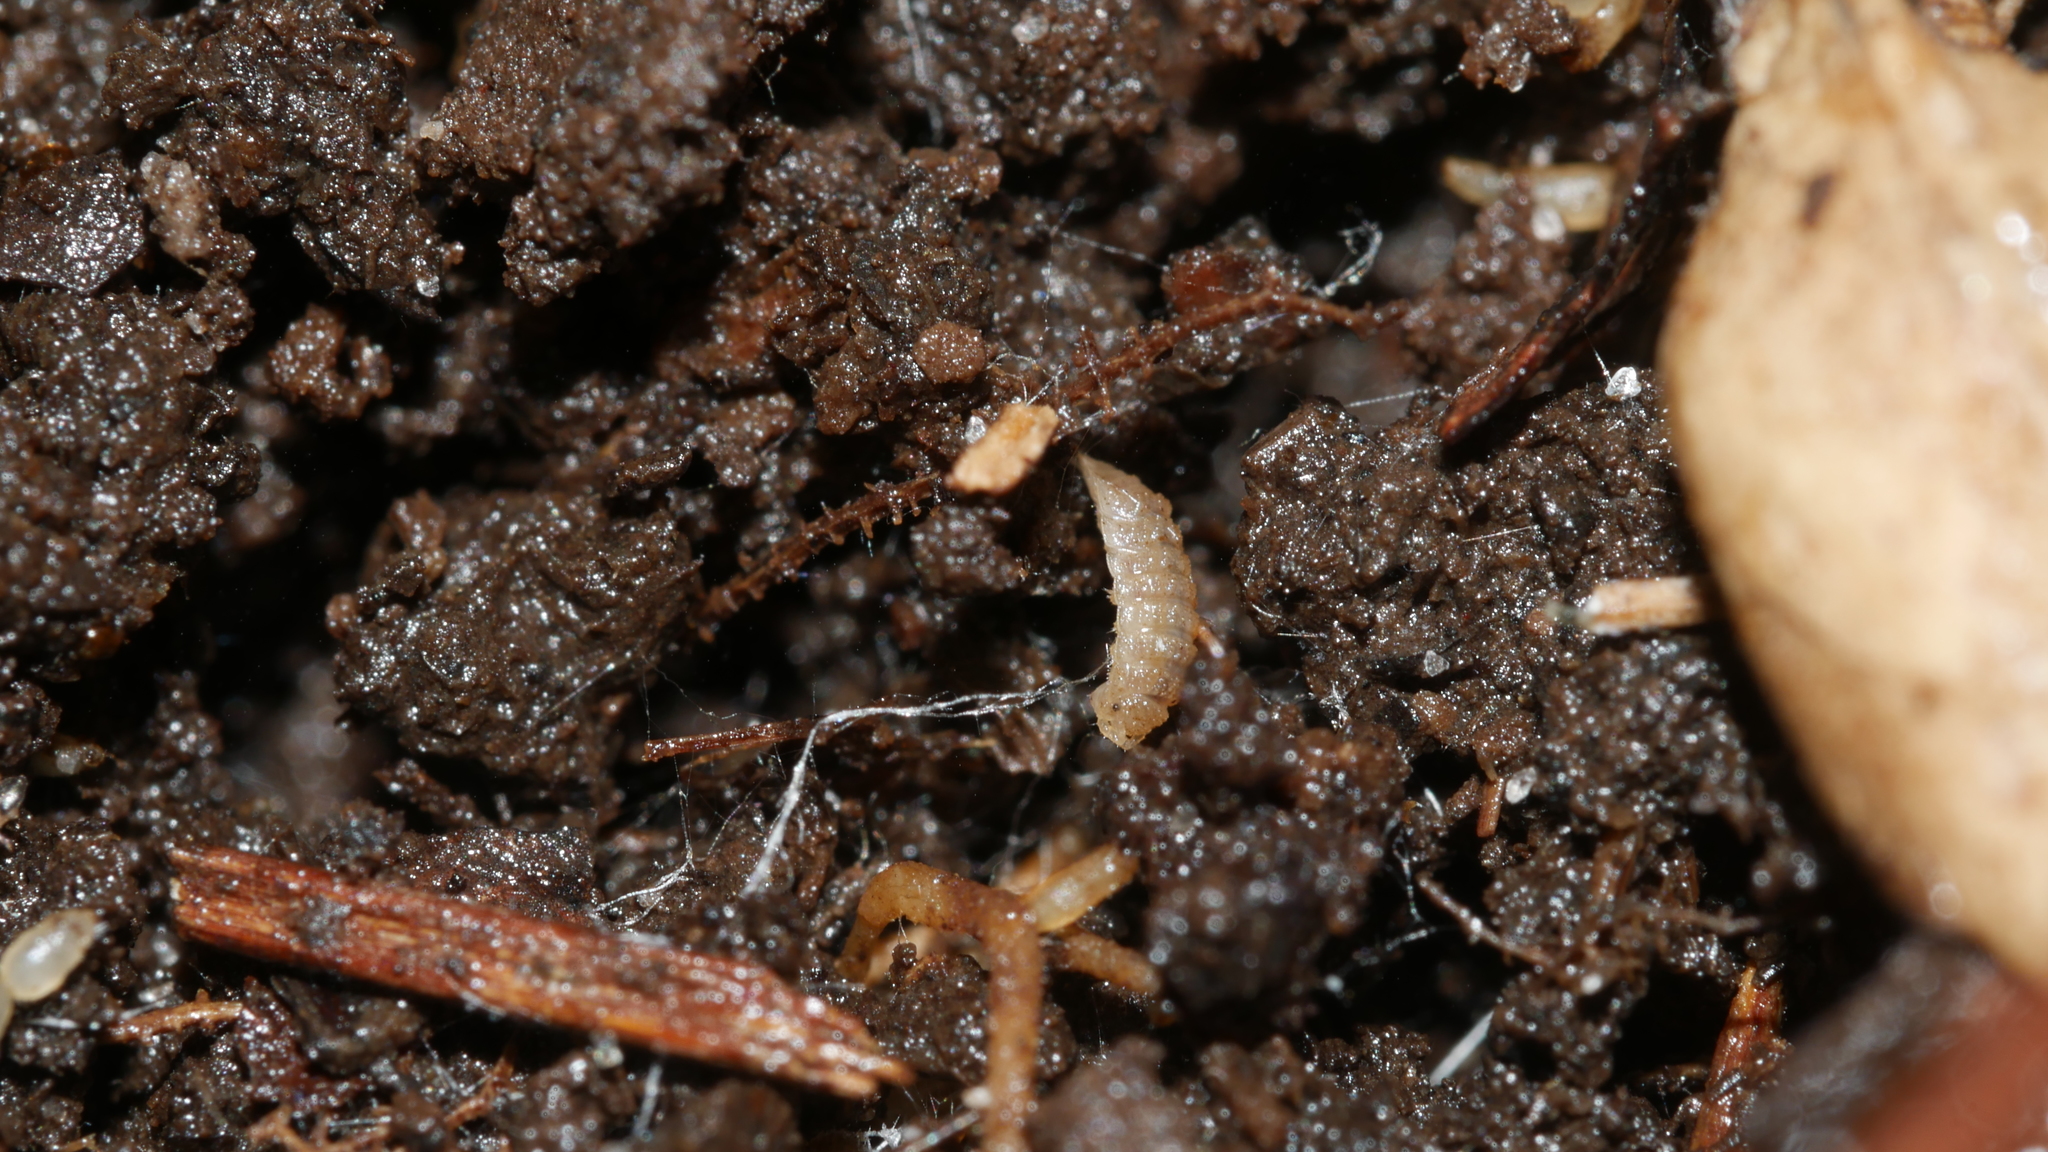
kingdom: Animalia
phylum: Arthropoda
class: Malacostraca
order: Isopoda
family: Trichoniscidae
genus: Haplophthalmus
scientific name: Haplophthalmus danicus
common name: Pillbug
